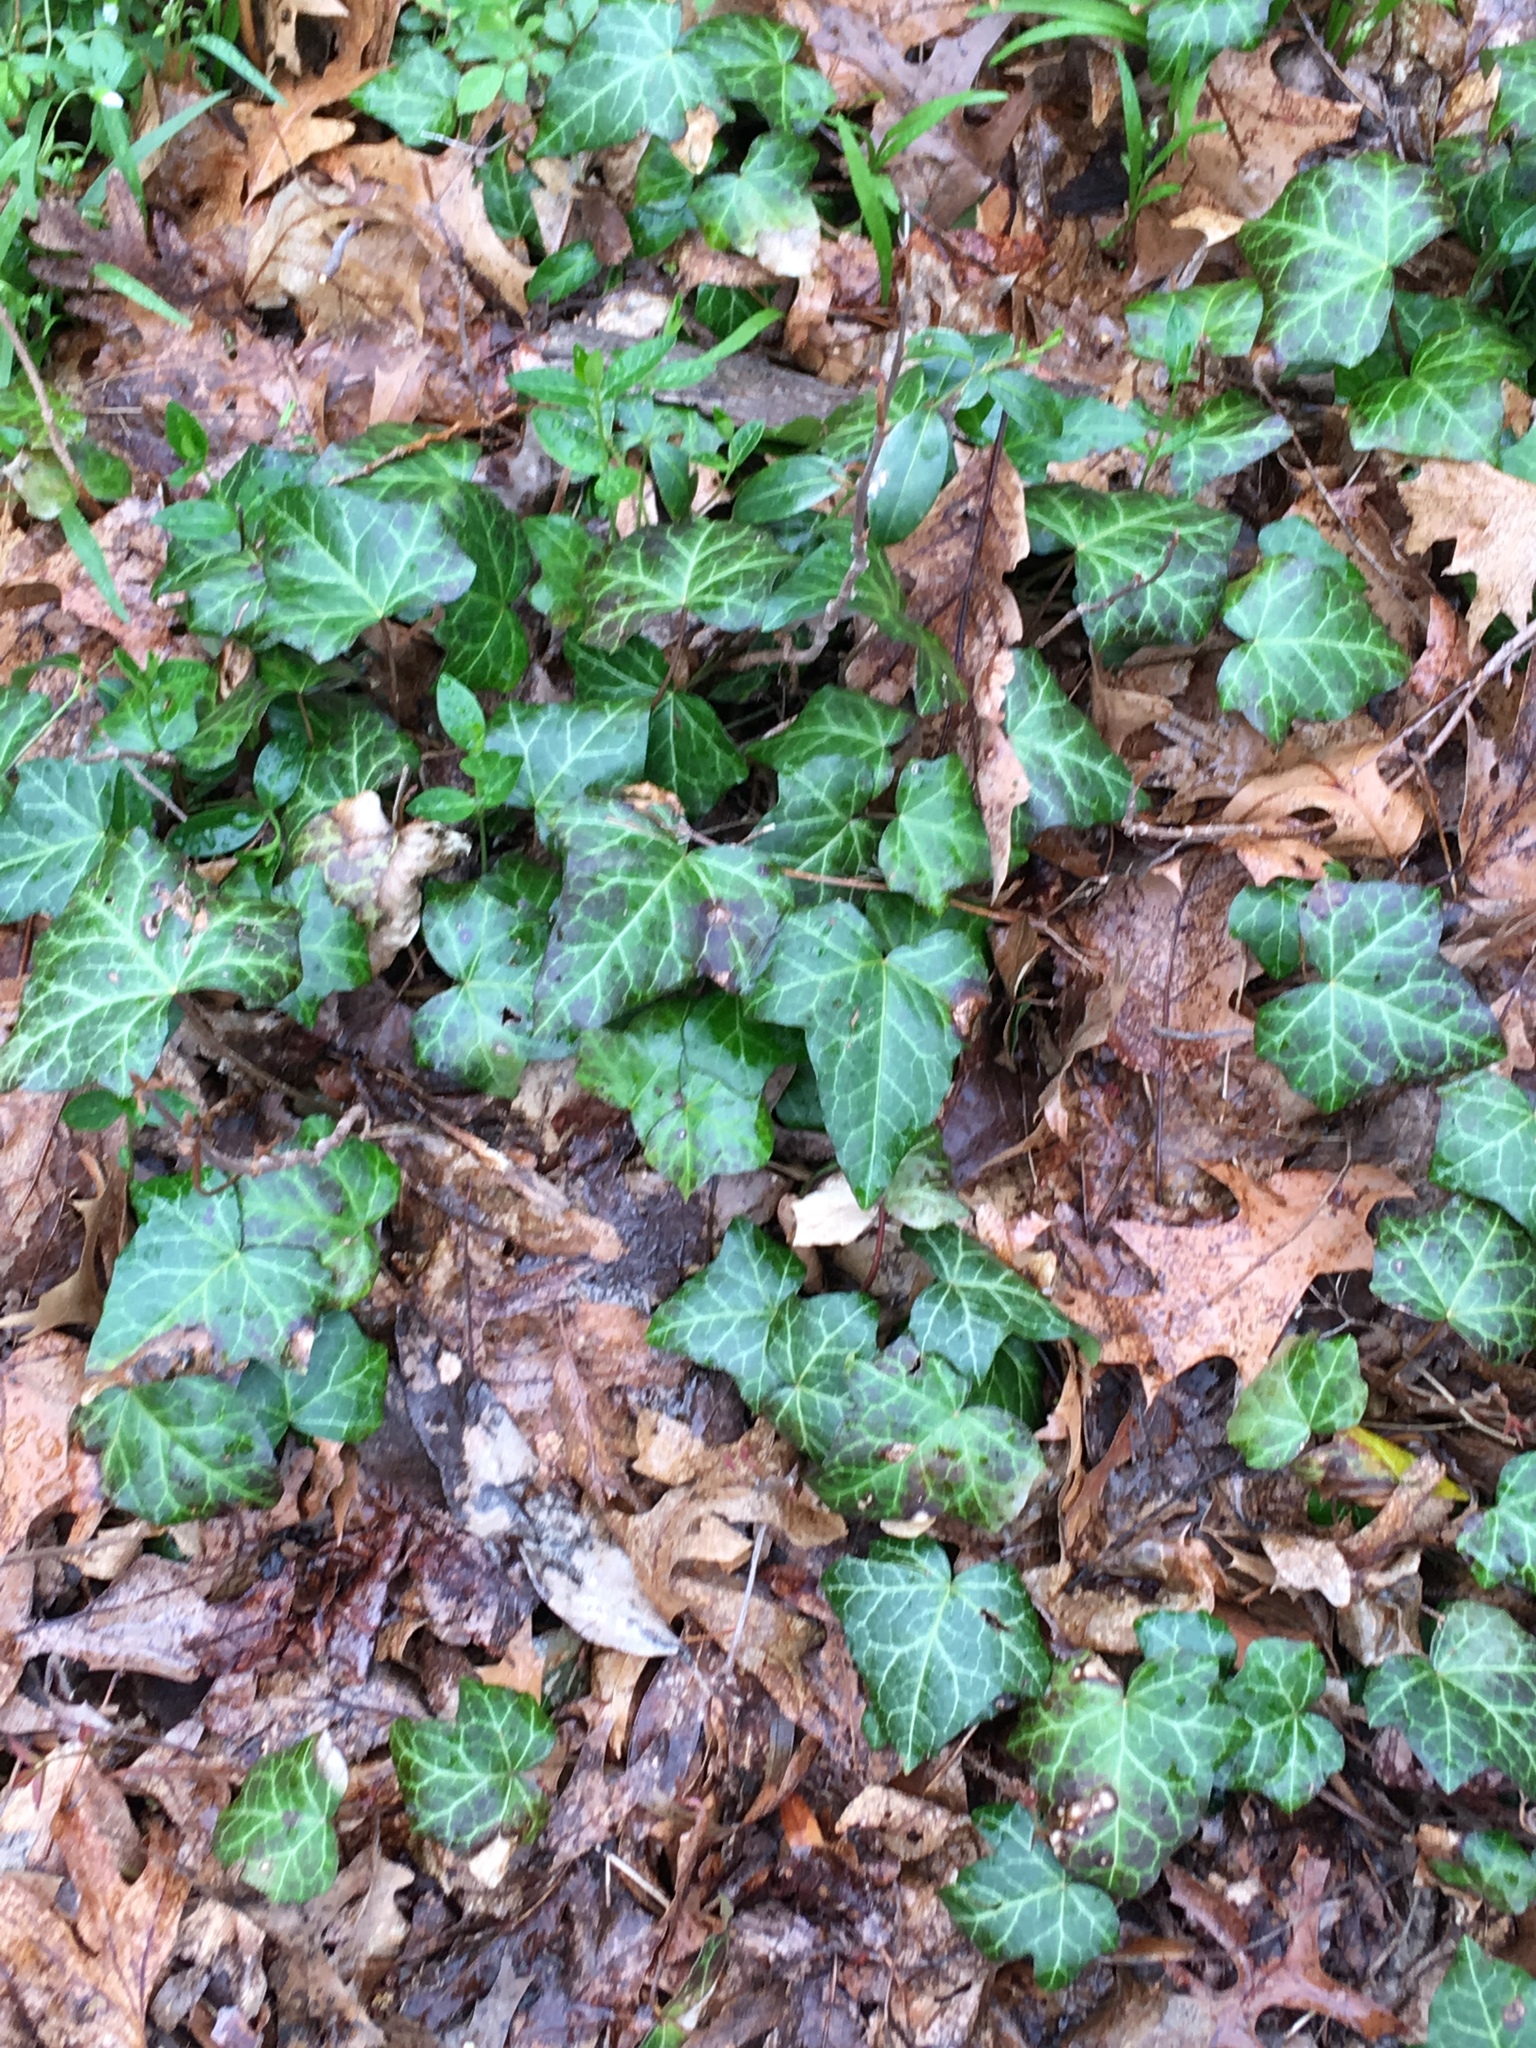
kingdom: Plantae
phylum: Tracheophyta
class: Magnoliopsida
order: Apiales
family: Araliaceae
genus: Hedera
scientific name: Hedera helix
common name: Ivy
